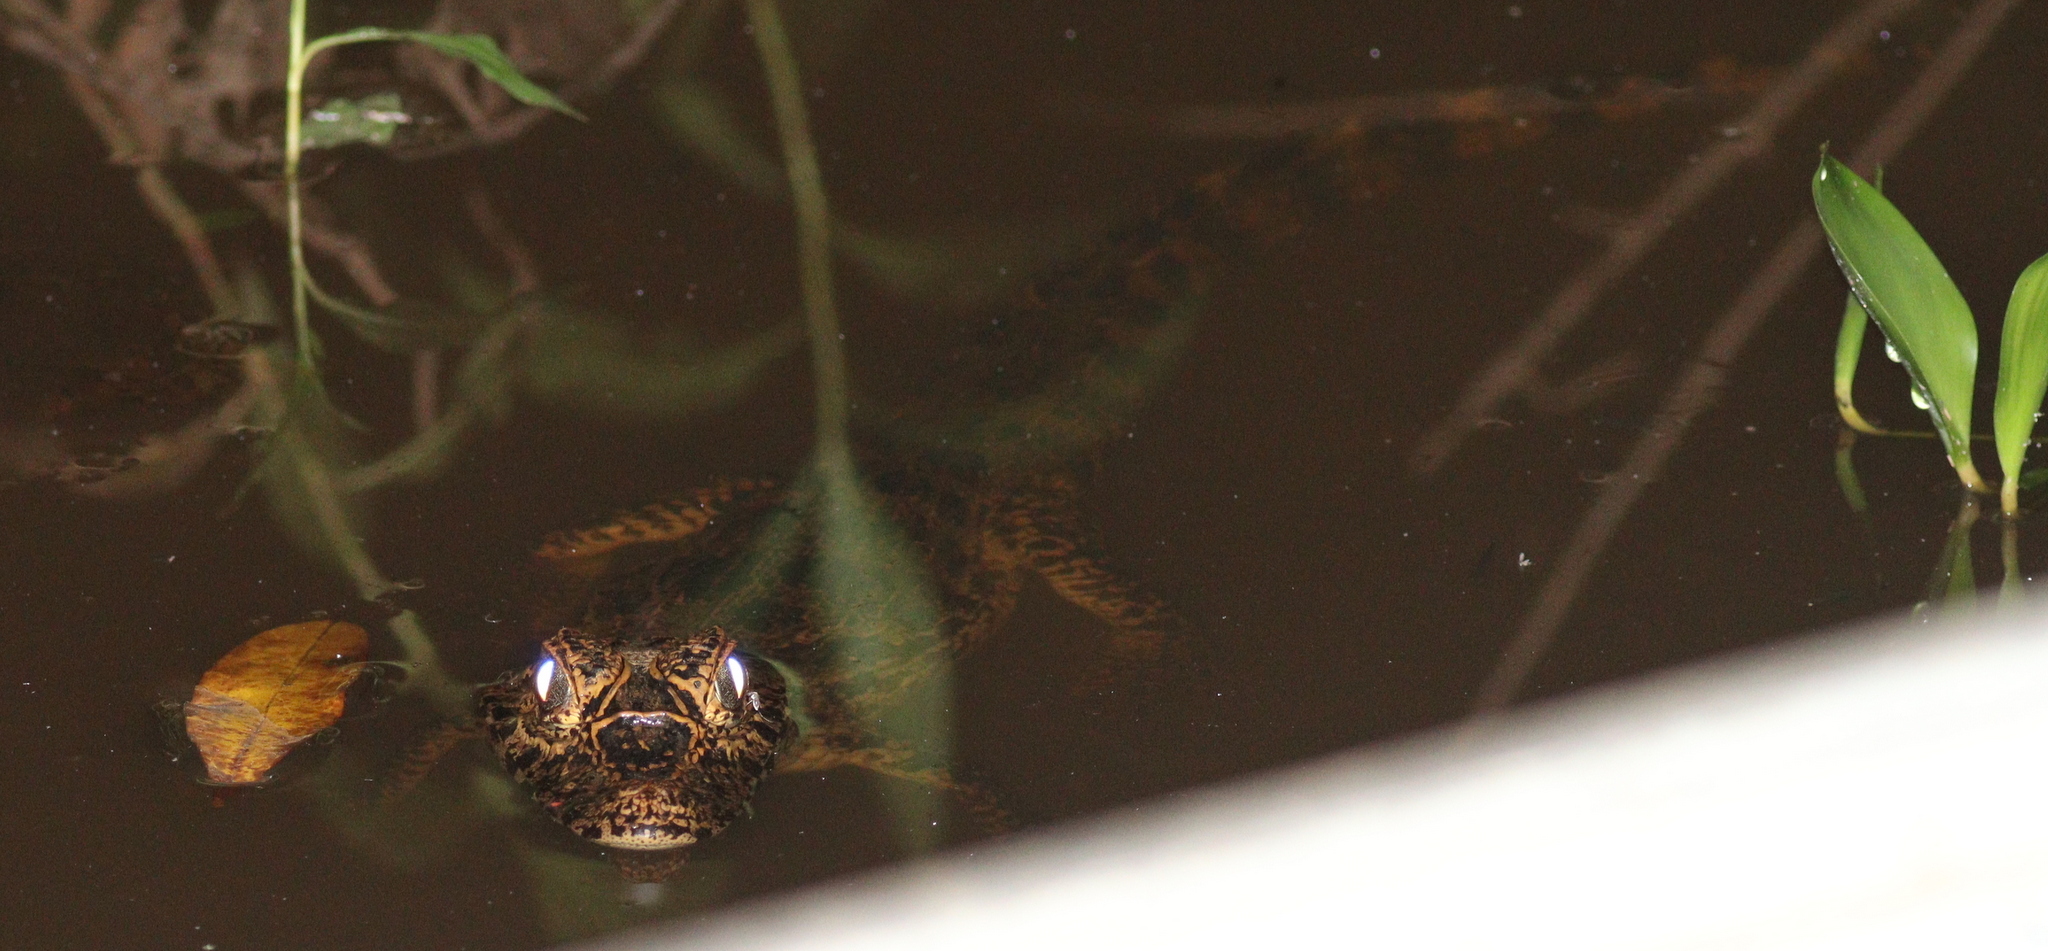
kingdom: Animalia
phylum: Chordata
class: Crocodylia
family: Alligatoridae
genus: Caiman
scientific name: Caiman yacare
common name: Yacare caiman
